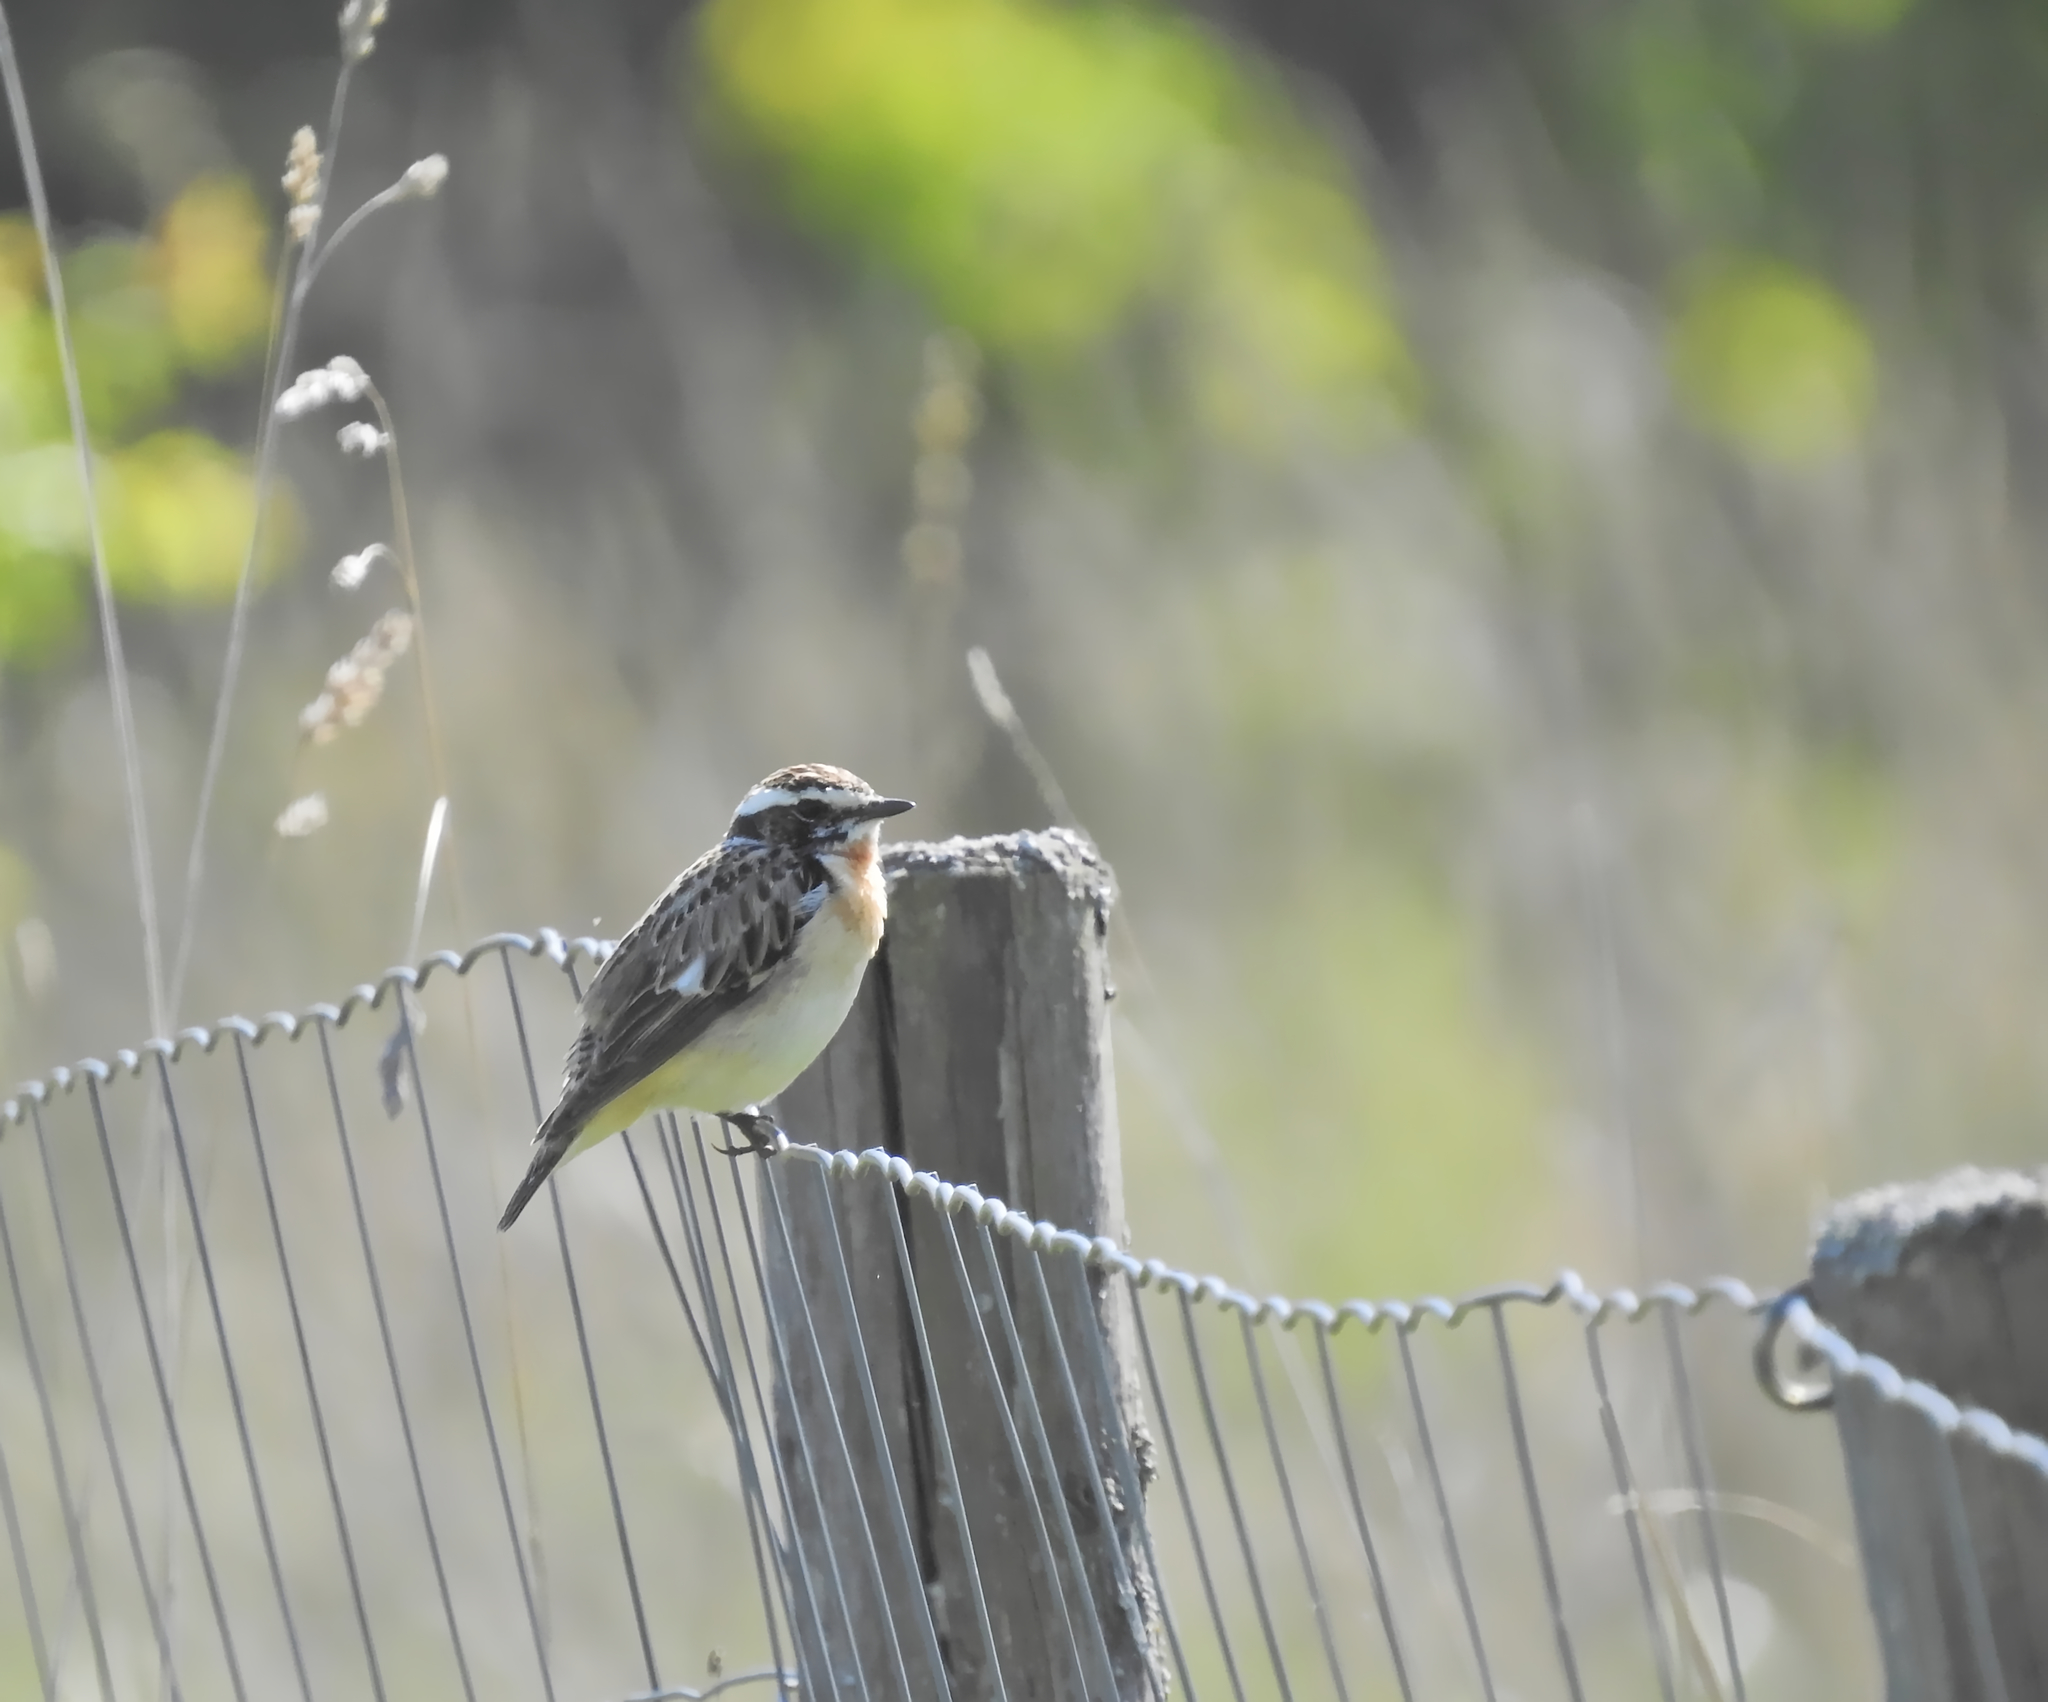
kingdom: Animalia
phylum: Chordata
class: Aves
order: Passeriformes
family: Muscicapidae
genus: Saxicola
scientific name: Saxicola rubetra
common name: Whinchat
